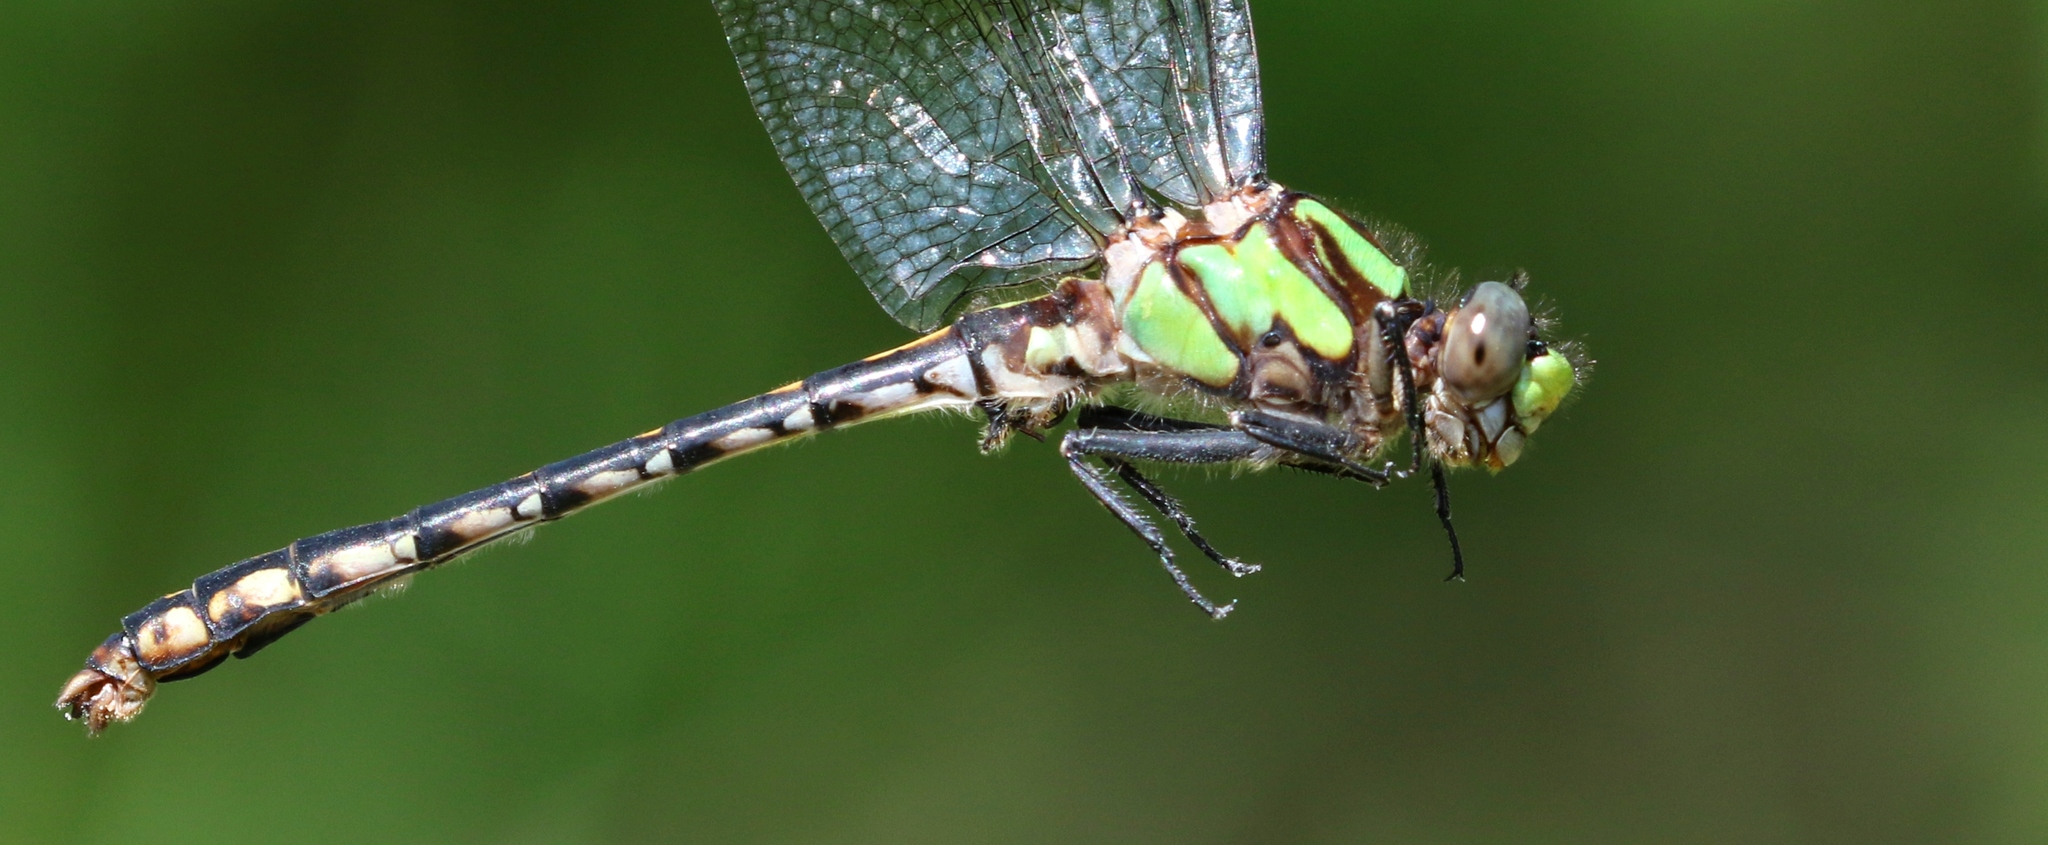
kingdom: Animalia
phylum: Arthropoda
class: Insecta
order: Odonata
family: Gomphidae
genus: Ophiogomphus
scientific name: Ophiogomphus carolus
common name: Riffle snaketail
